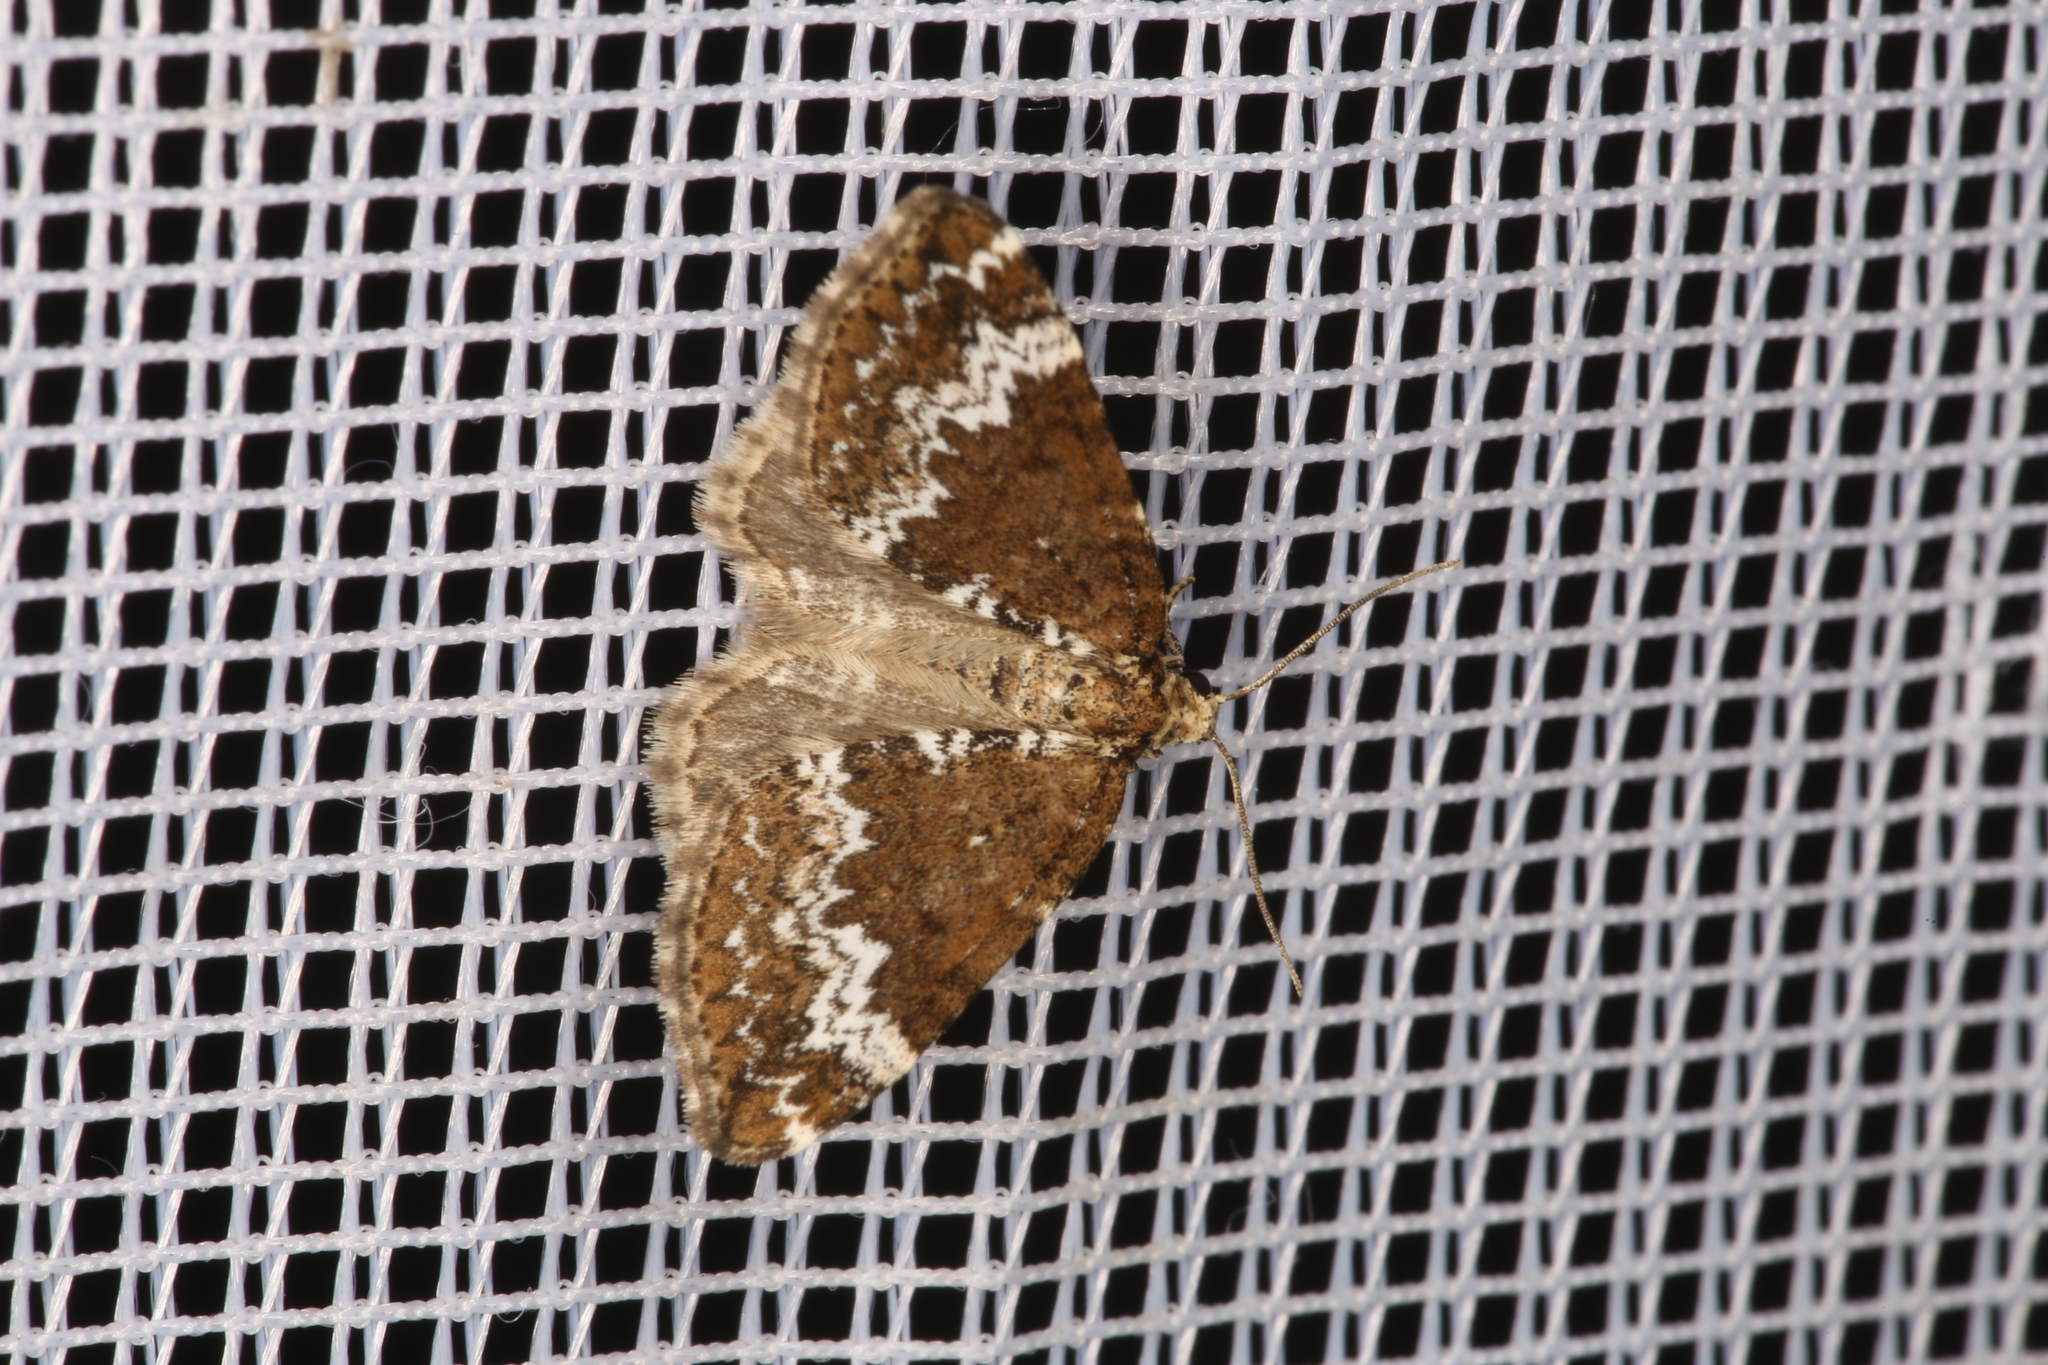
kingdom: Animalia
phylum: Arthropoda
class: Insecta
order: Lepidoptera
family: Geometridae
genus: Perizoma
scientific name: Perizoma alchemillata
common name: Small rivulet
